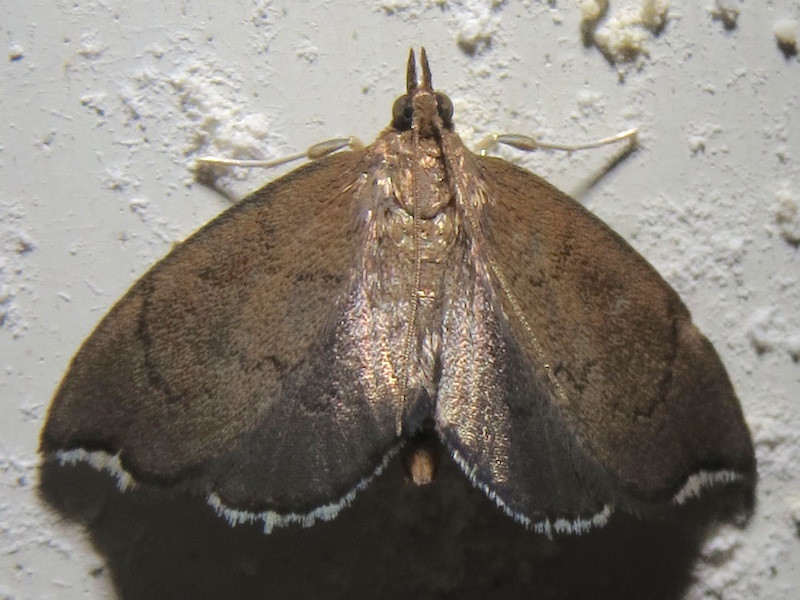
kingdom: Animalia
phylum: Arthropoda
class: Insecta
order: Lepidoptera
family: Crambidae
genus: Perispasta
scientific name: Perispasta caeculalis
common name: Titian peale's moth
